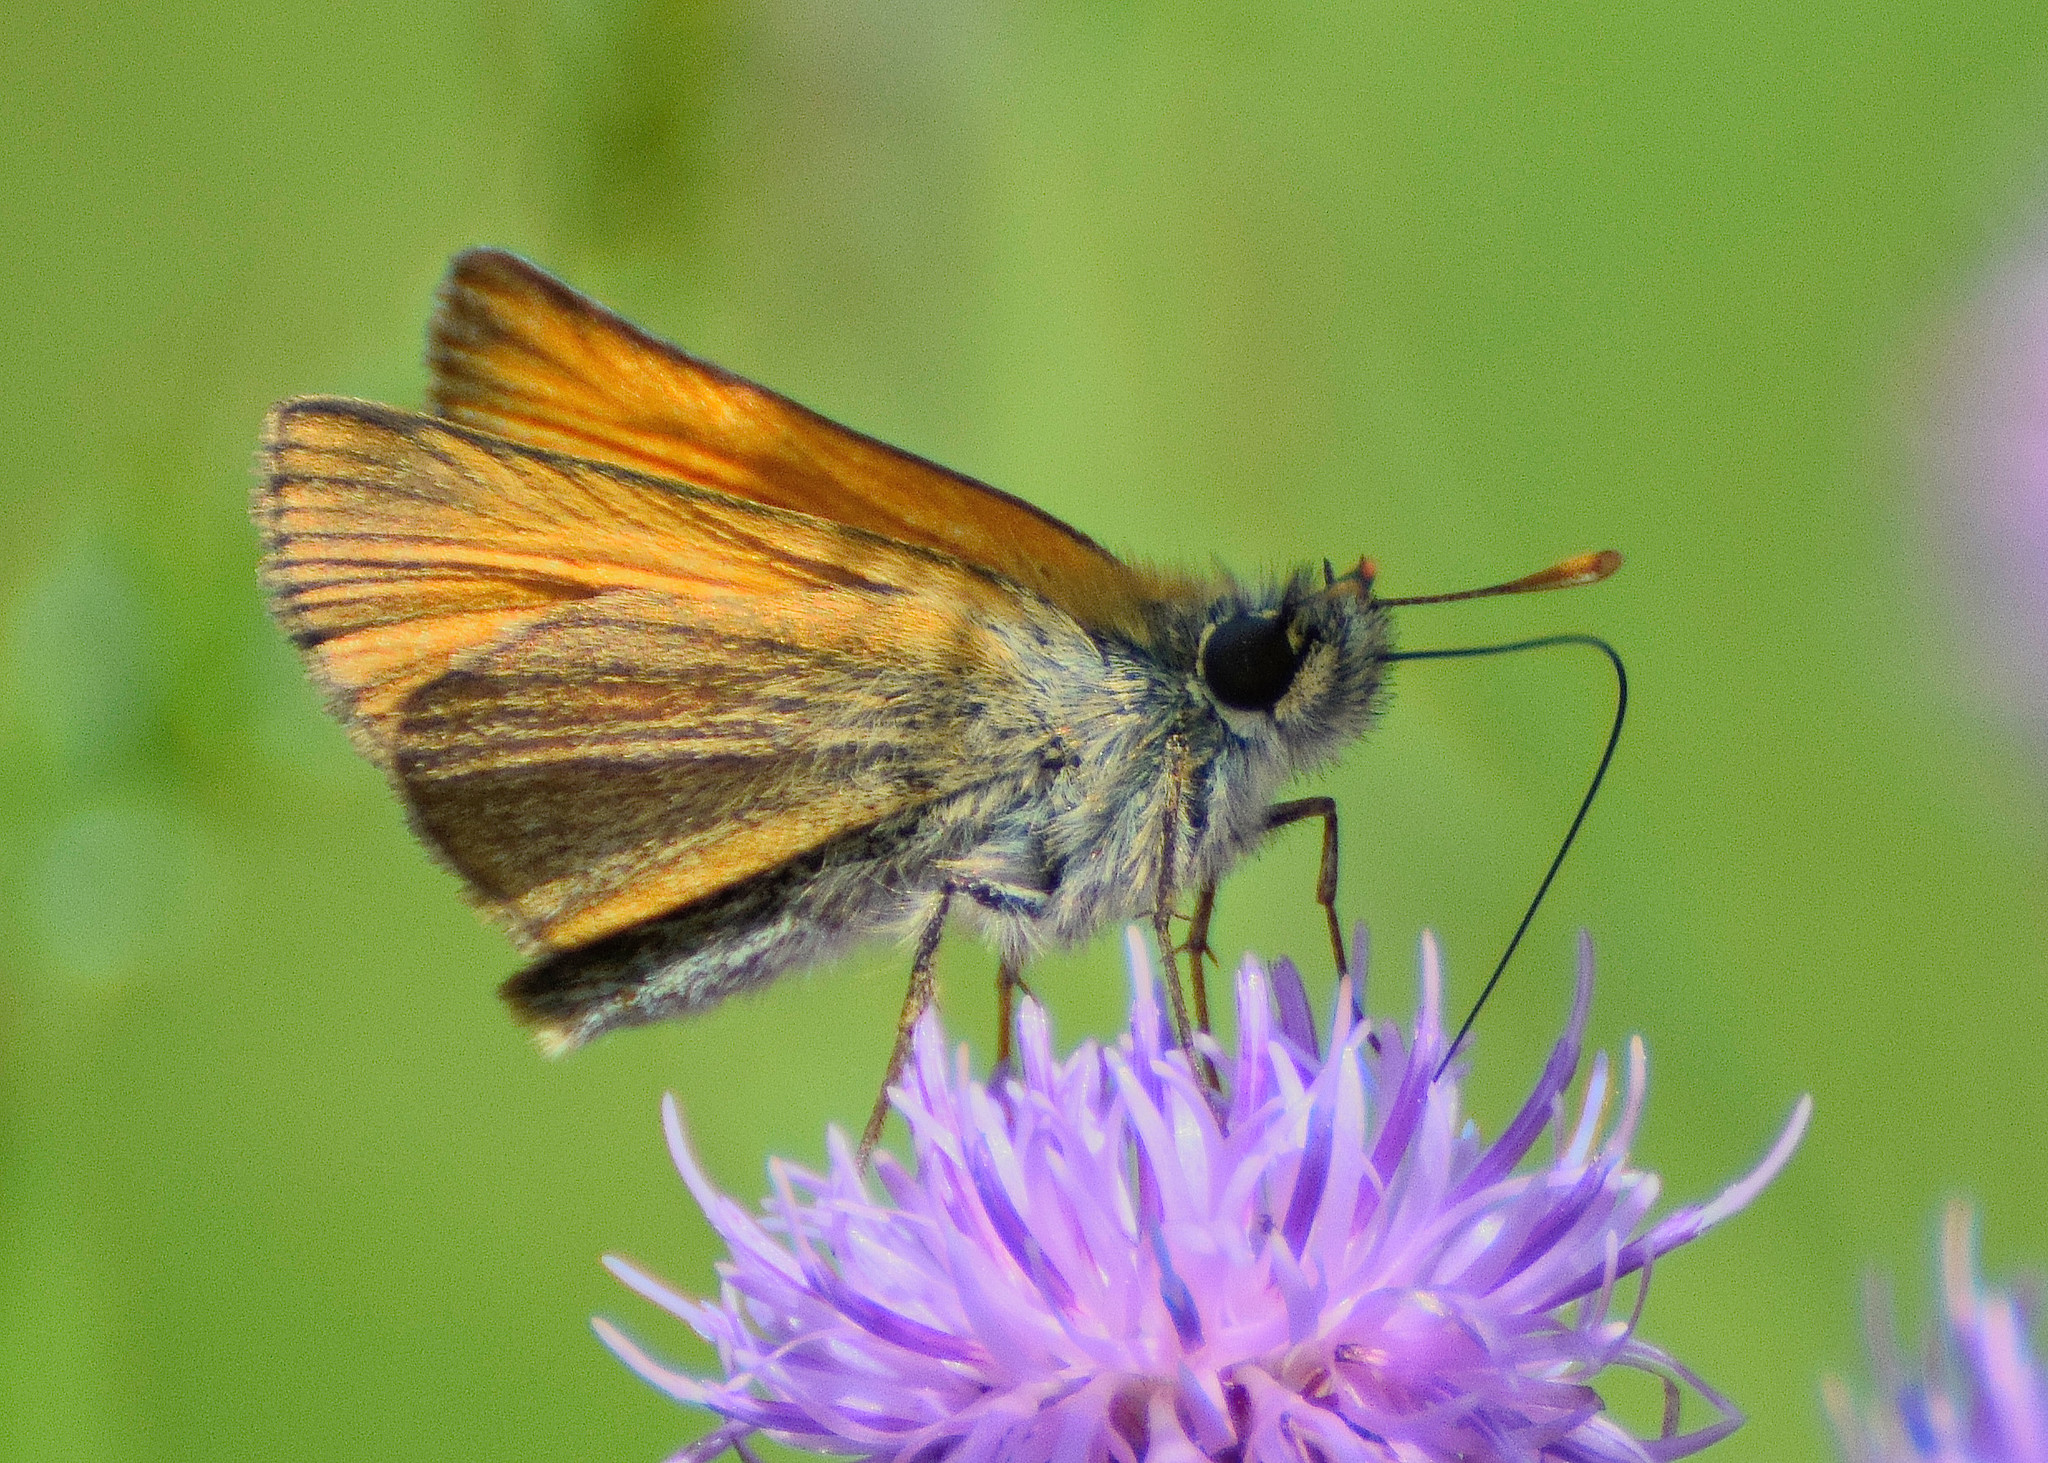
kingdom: Animalia
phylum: Arthropoda
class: Insecta
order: Lepidoptera
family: Hesperiidae
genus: Thymelicus
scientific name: Thymelicus sylvestris
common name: Small skipper
